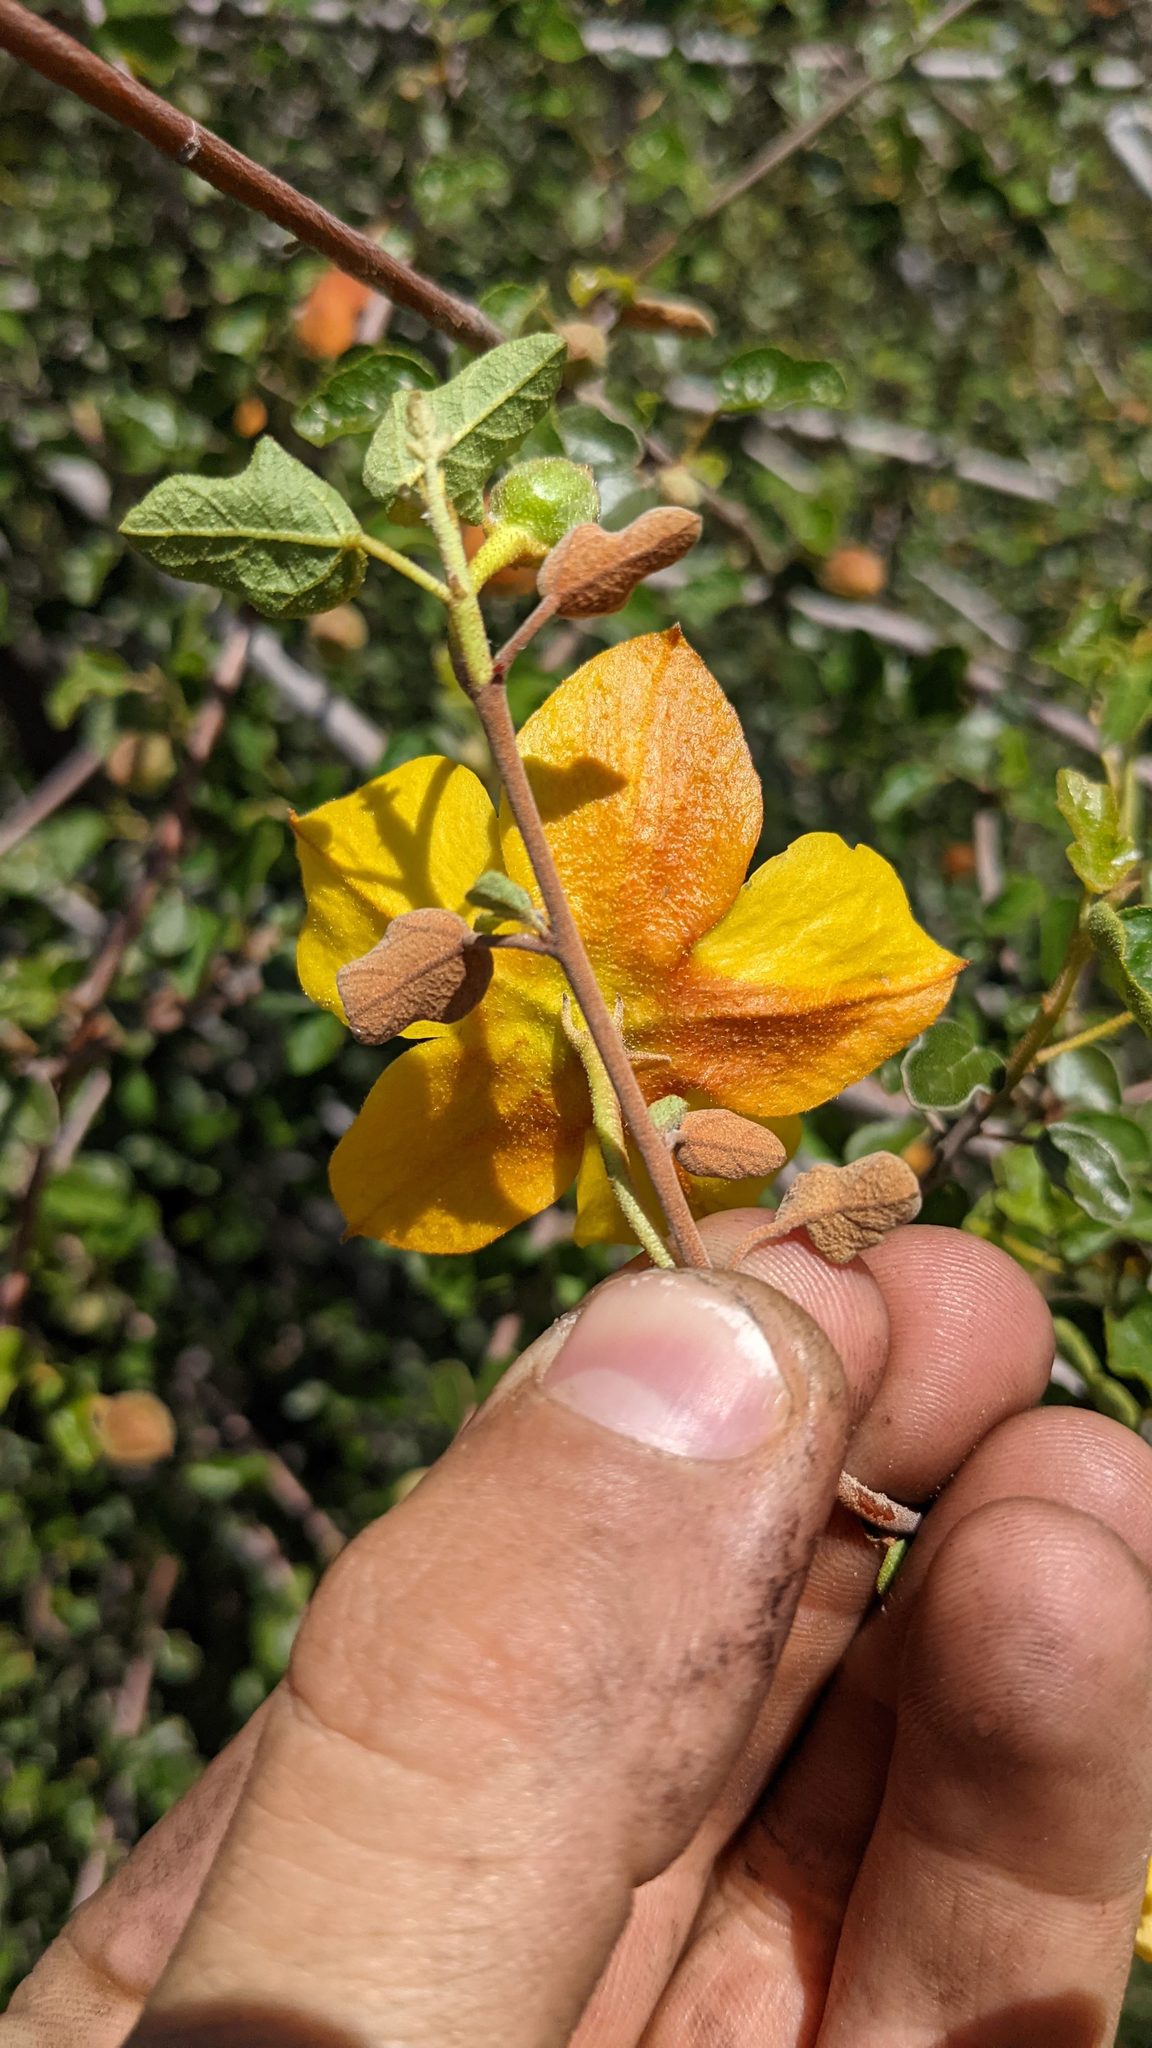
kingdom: Plantae
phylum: Tracheophyta
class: Magnoliopsida
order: Malvales
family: Malvaceae
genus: Fremontodendron
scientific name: Fremontodendron californicum
